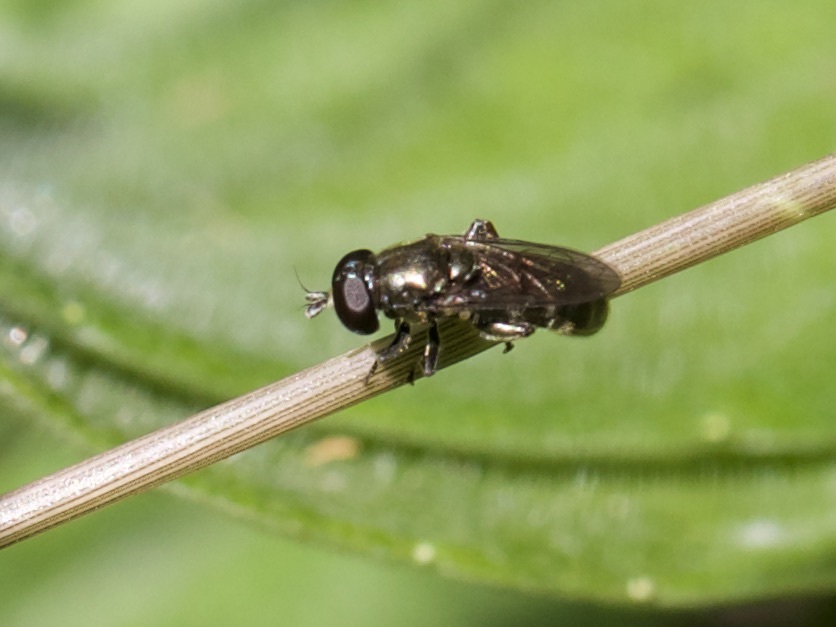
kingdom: Animalia
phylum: Arthropoda
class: Insecta
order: Diptera
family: Syrphidae
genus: Eumerus
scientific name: Eumerus
